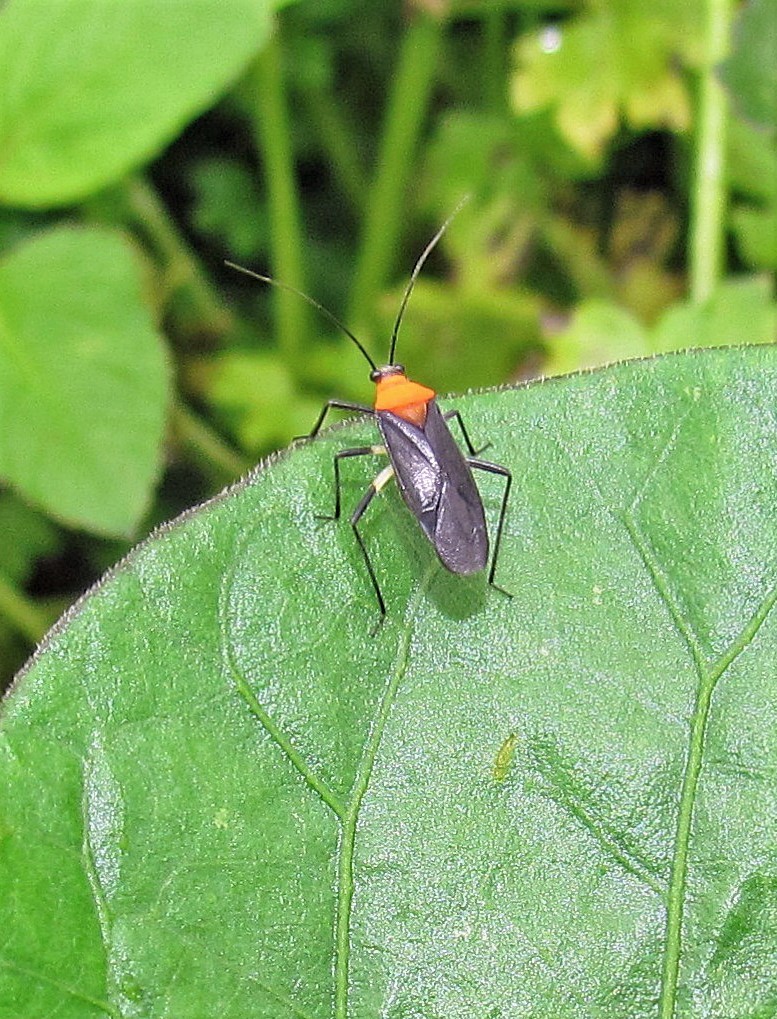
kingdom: Animalia
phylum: Arthropoda
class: Insecta
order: Hemiptera
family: Miridae
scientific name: Miridae
